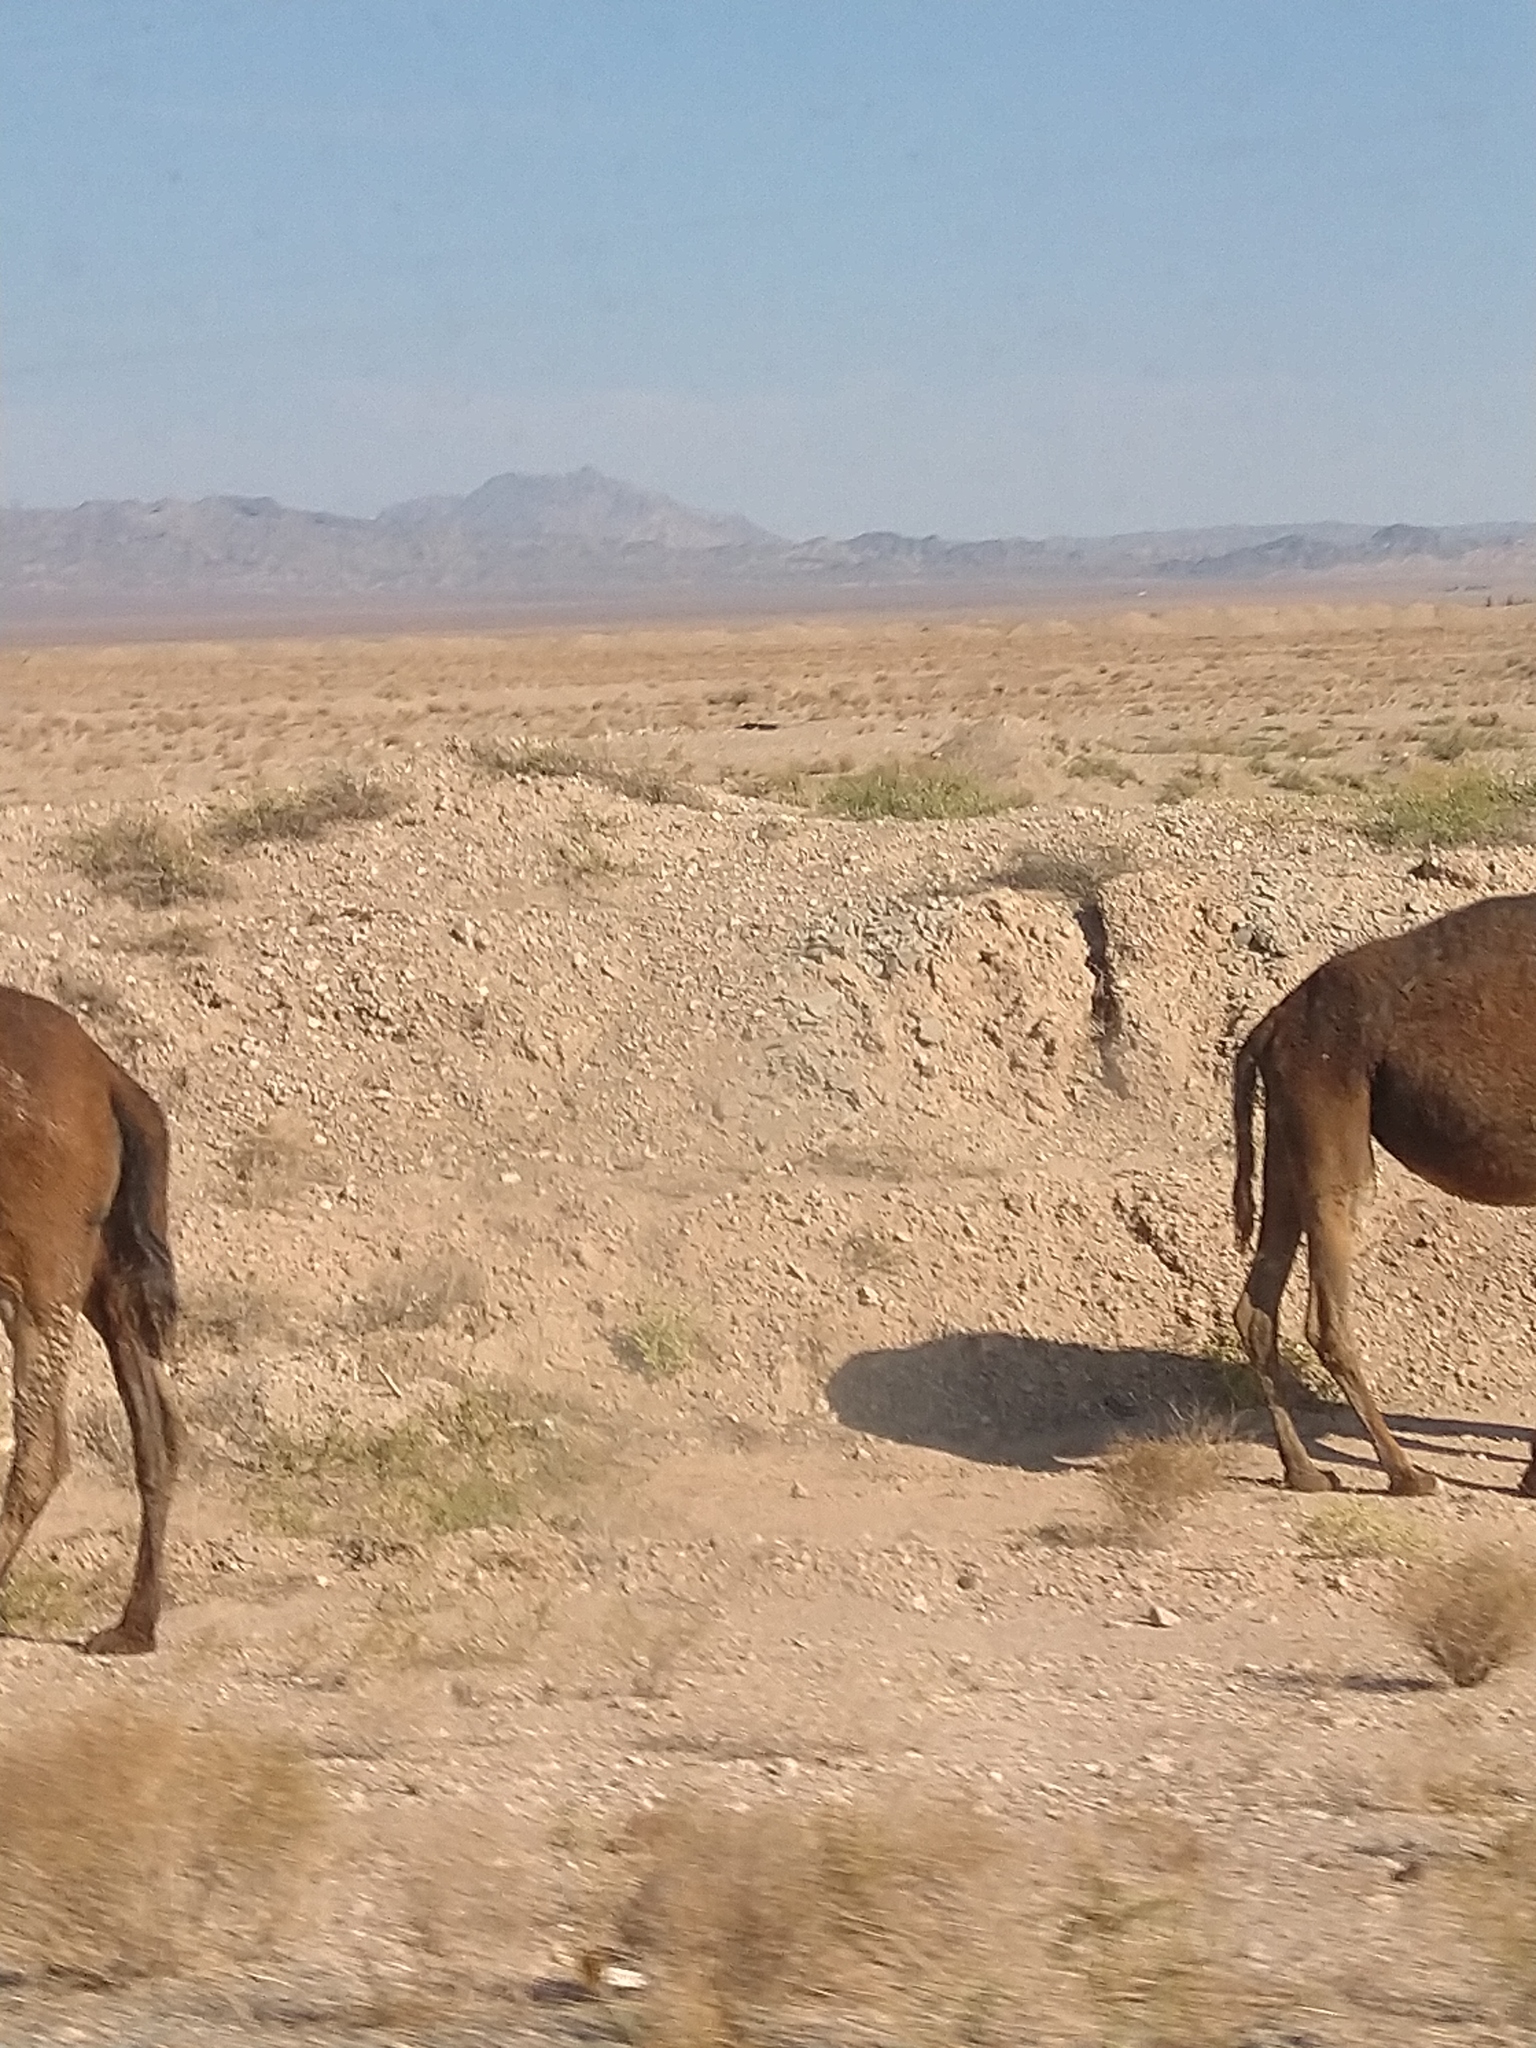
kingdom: Animalia
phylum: Chordata
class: Mammalia
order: Artiodactyla
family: Camelidae
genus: Camelus
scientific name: Camelus dromedarius
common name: One-humped camel
